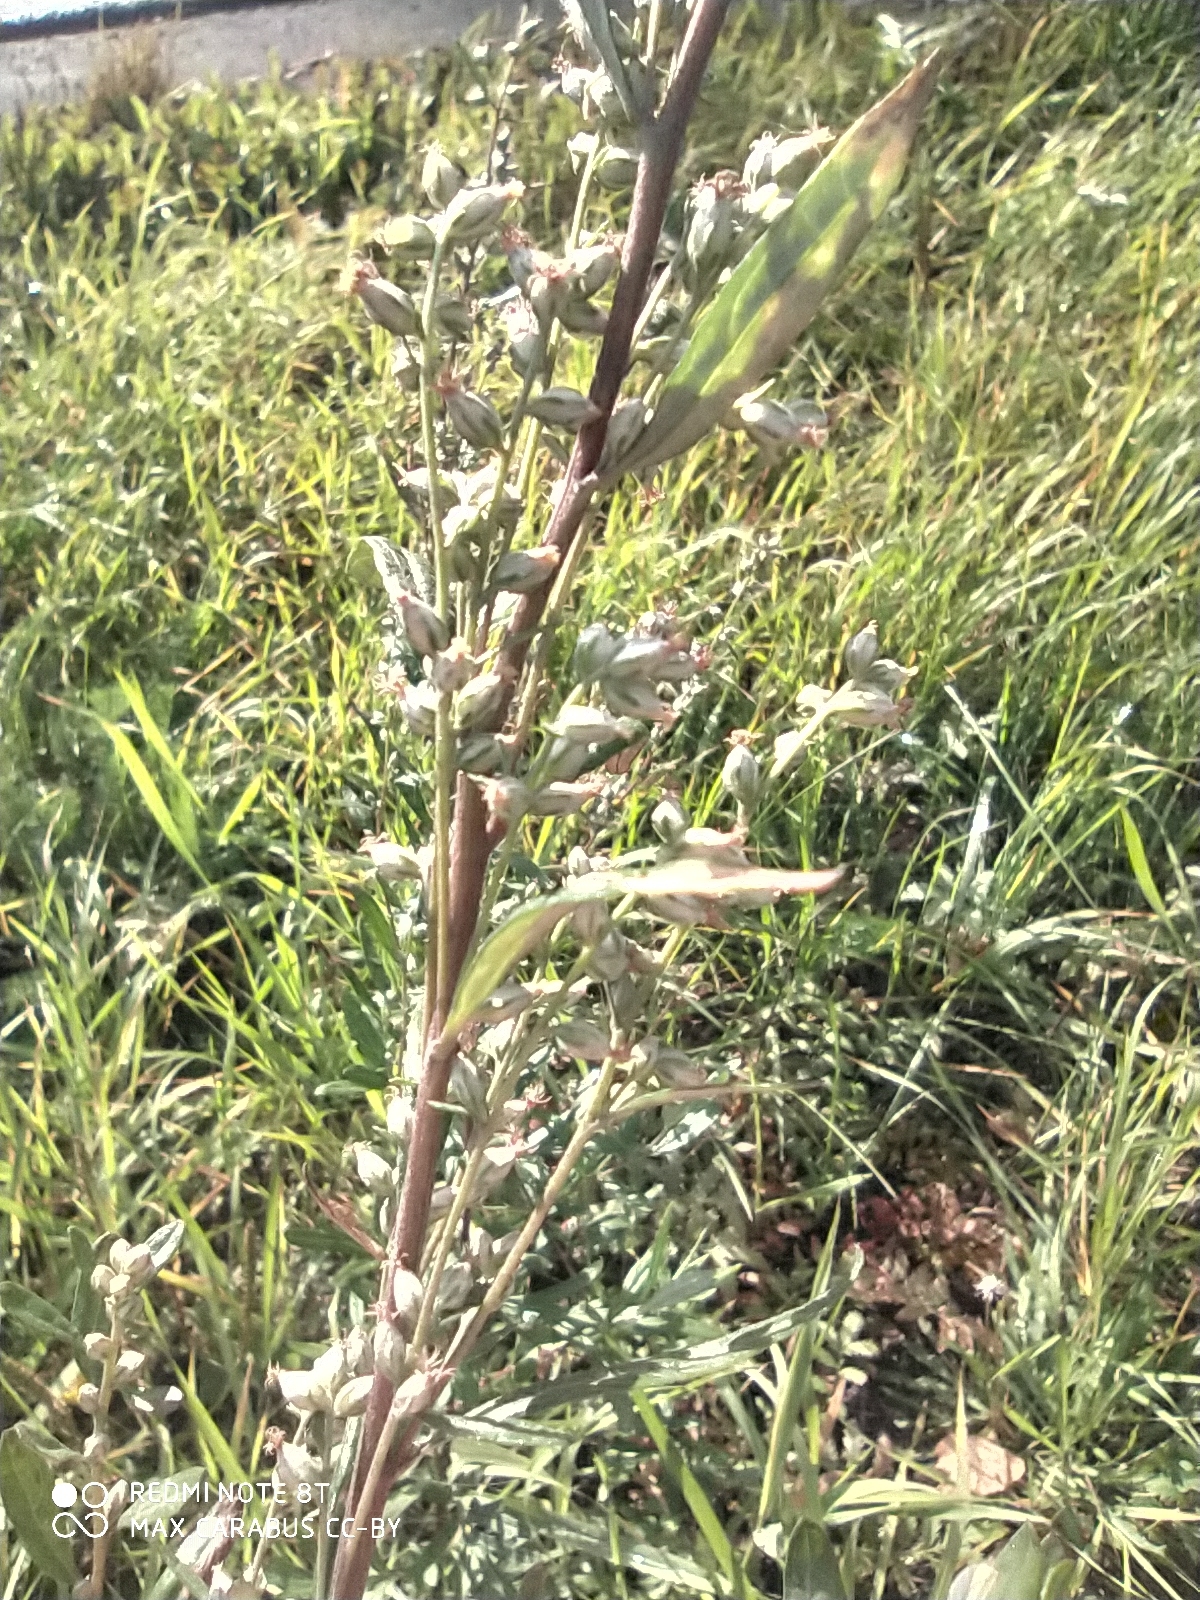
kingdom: Plantae
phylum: Tracheophyta
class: Magnoliopsida
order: Asterales
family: Asteraceae
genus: Artemisia
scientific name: Artemisia vulgaris
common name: Mugwort
